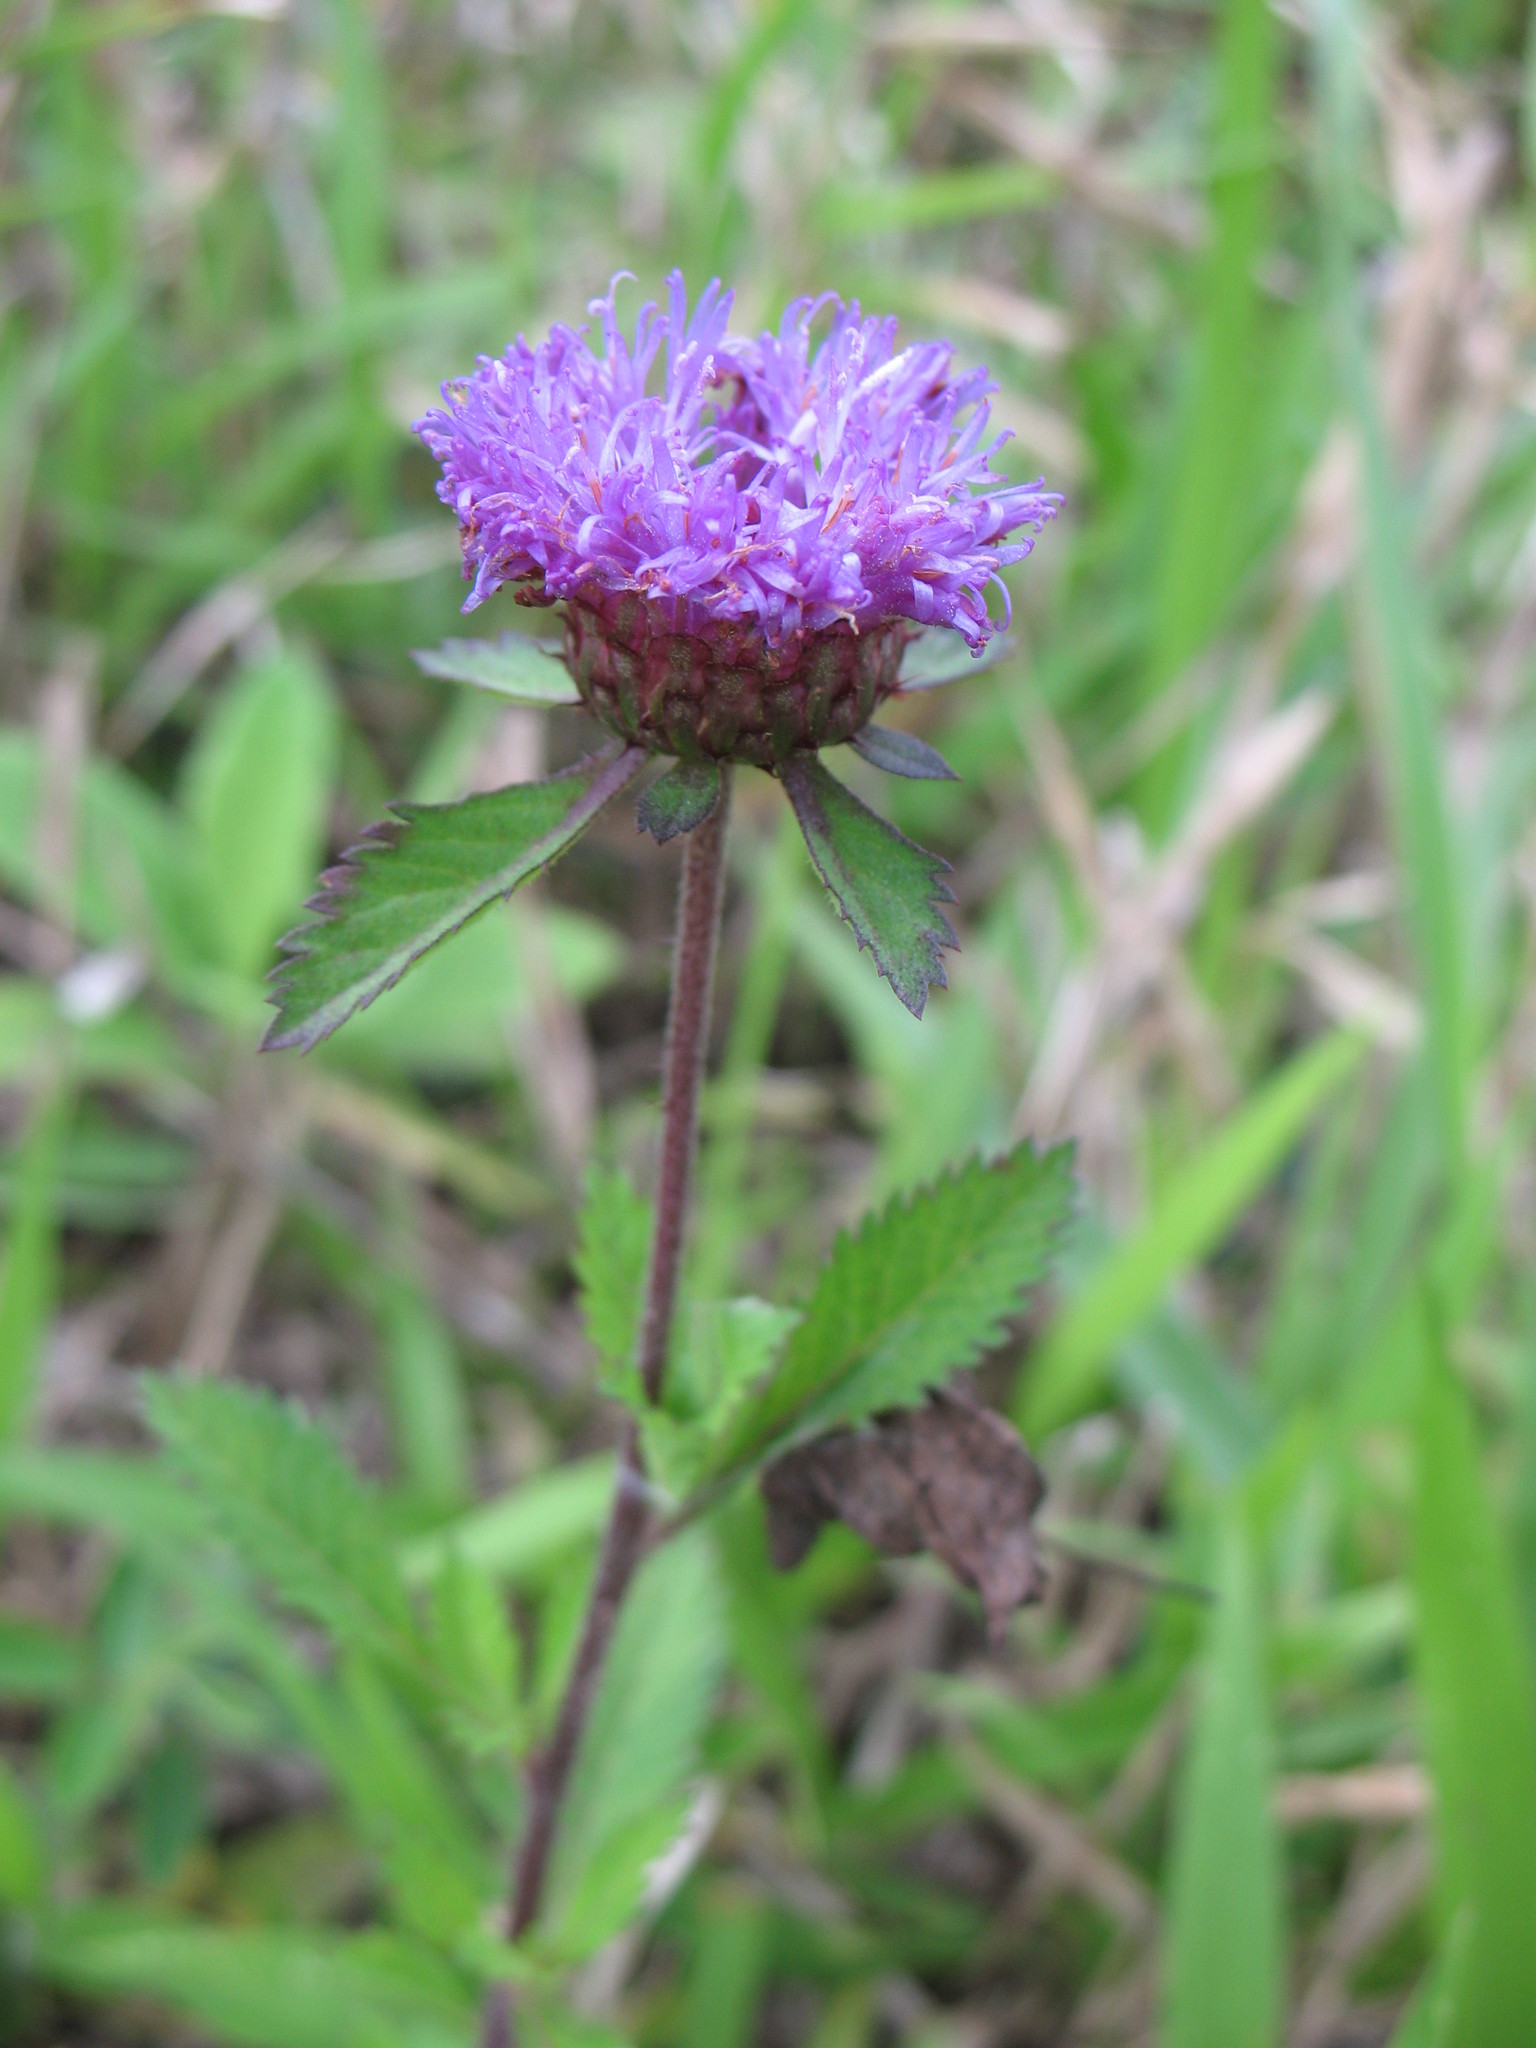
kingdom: Plantae
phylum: Tracheophyta
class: Magnoliopsida
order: Asterales
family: Asteraceae
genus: Centratherum
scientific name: Centratherum punctatum
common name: Larkdaisy
